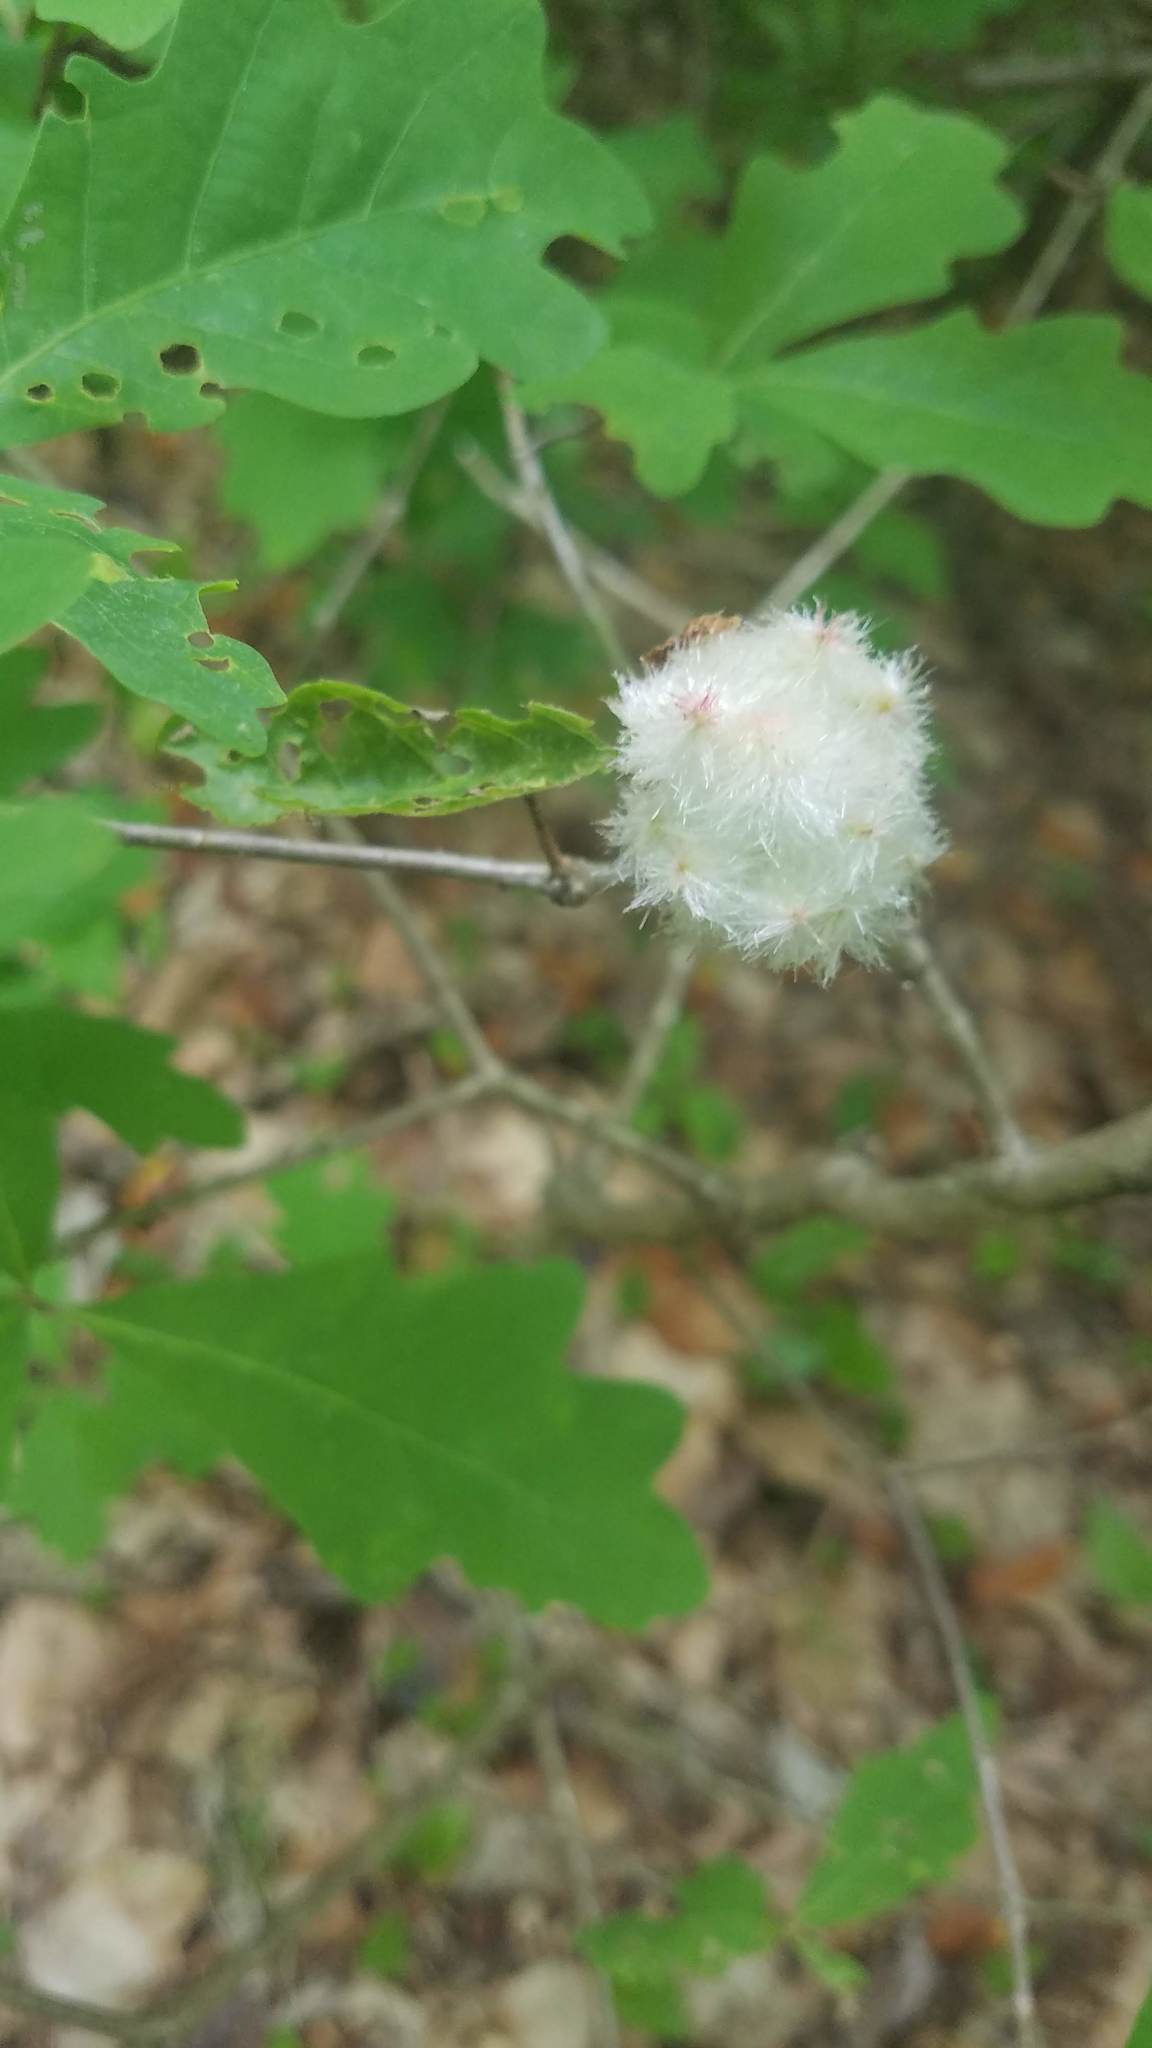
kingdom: Animalia
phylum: Arthropoda
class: Insecta
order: Hymenoptera
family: Cynipidae
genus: Callirhytis
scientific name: Callirhytis
